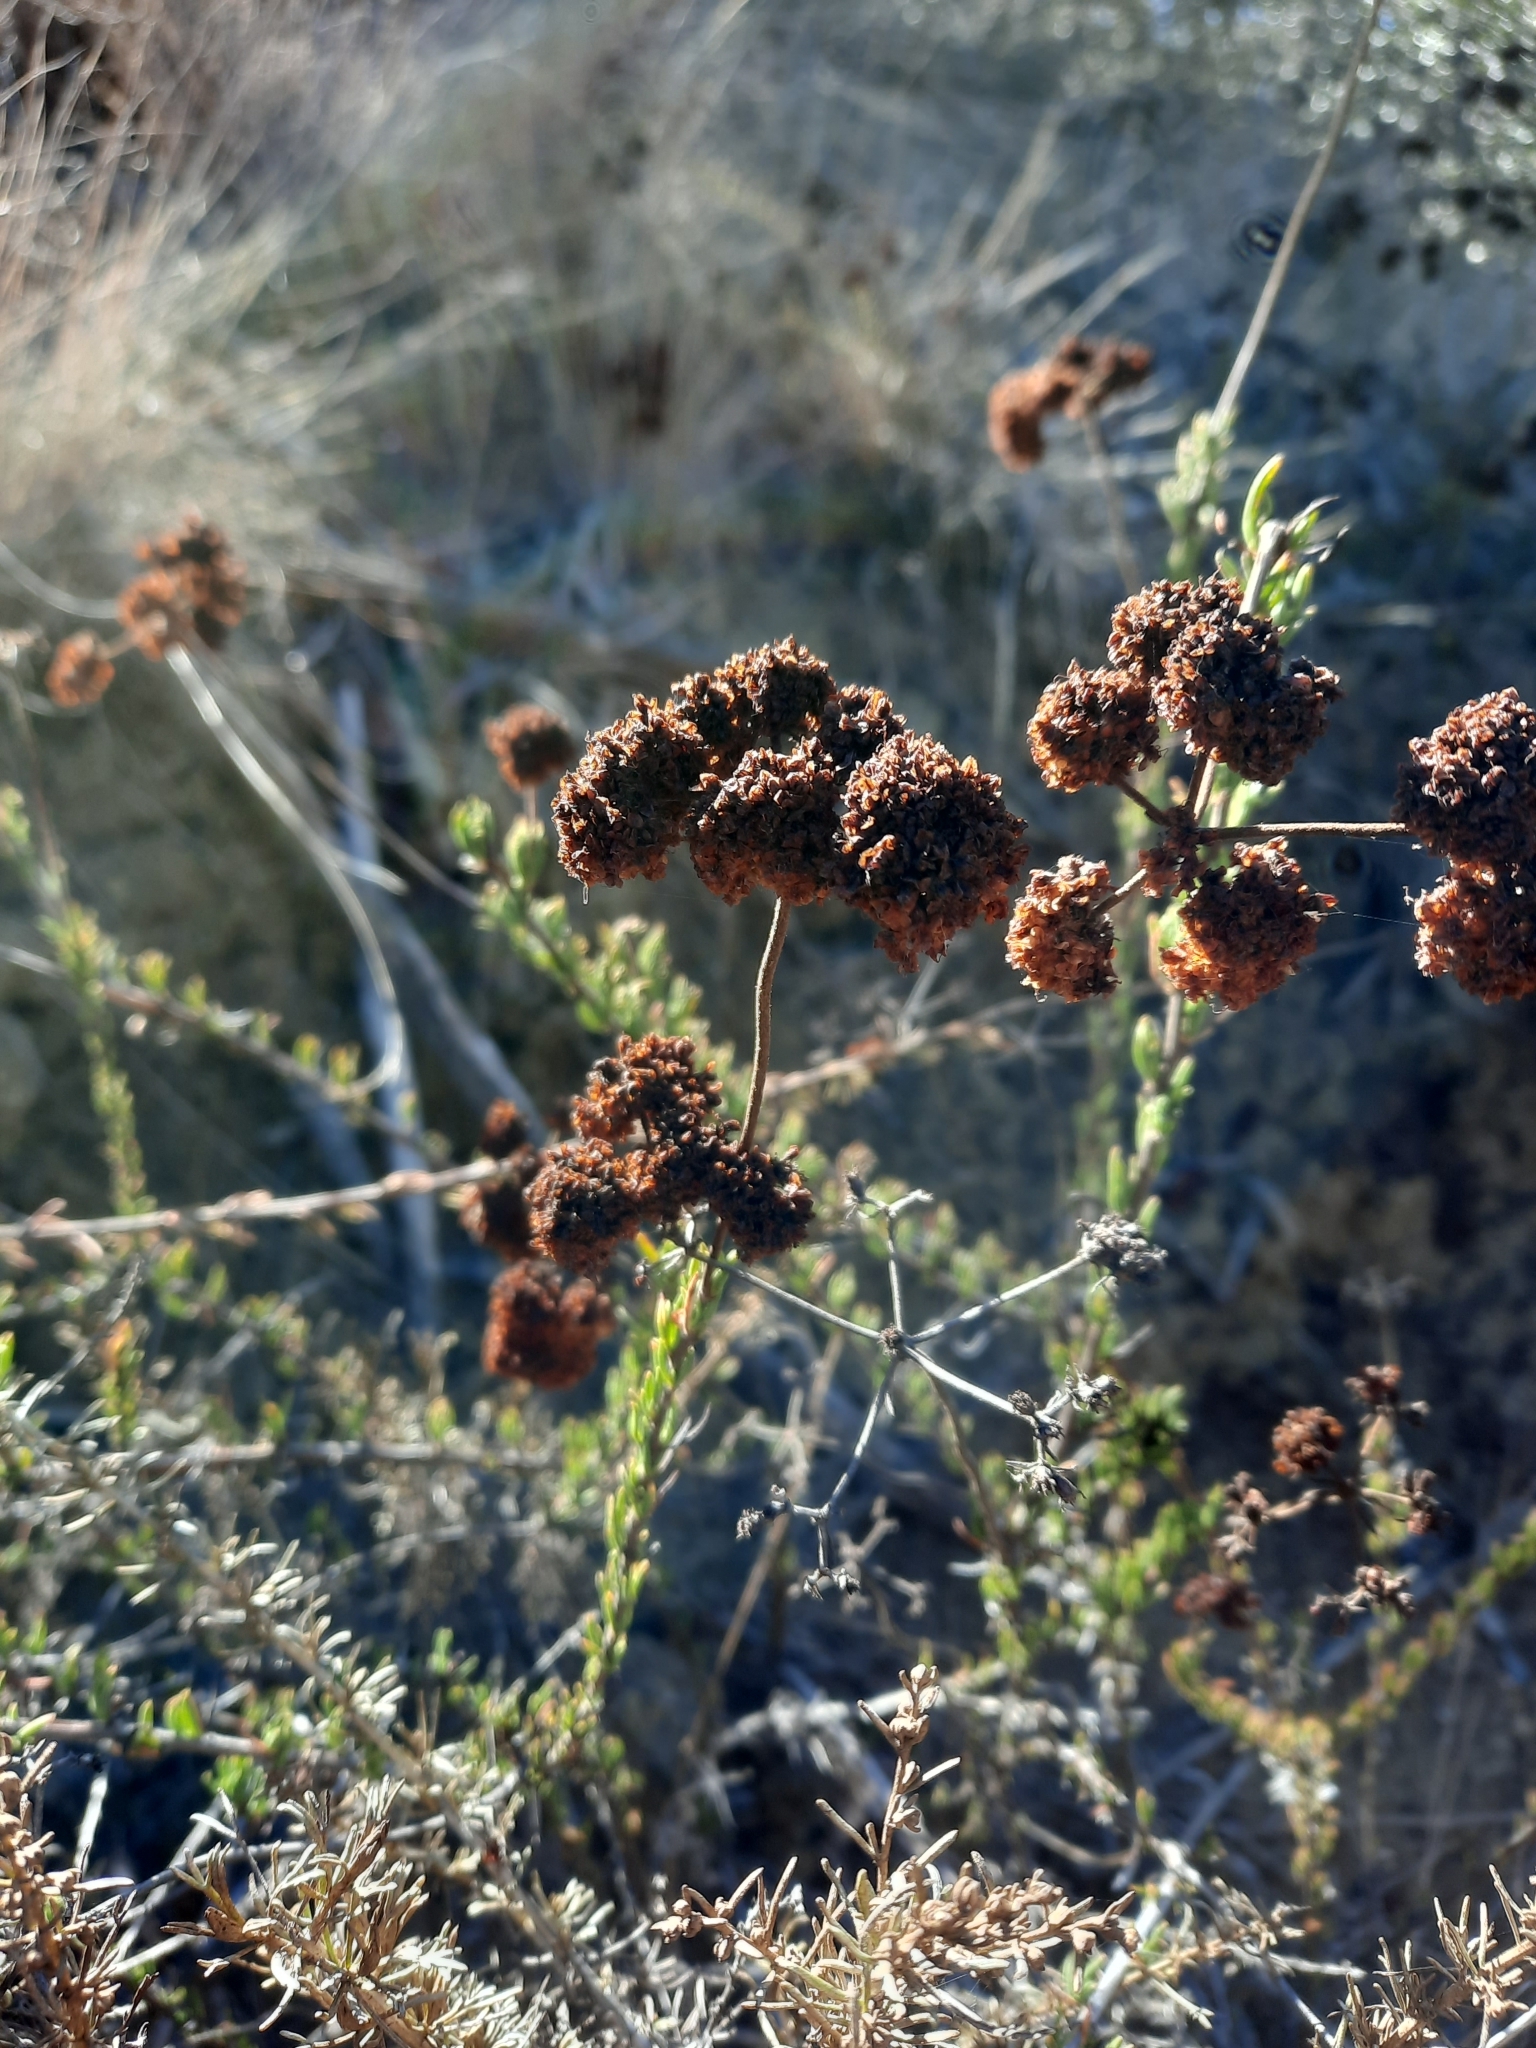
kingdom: Plantae
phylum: Tracheophyta
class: Magnoliopsida
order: Caryophyllales
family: Polygonaceae
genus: Eriogonum
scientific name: Eriogonum fasciculatum
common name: California wild buckwheat
